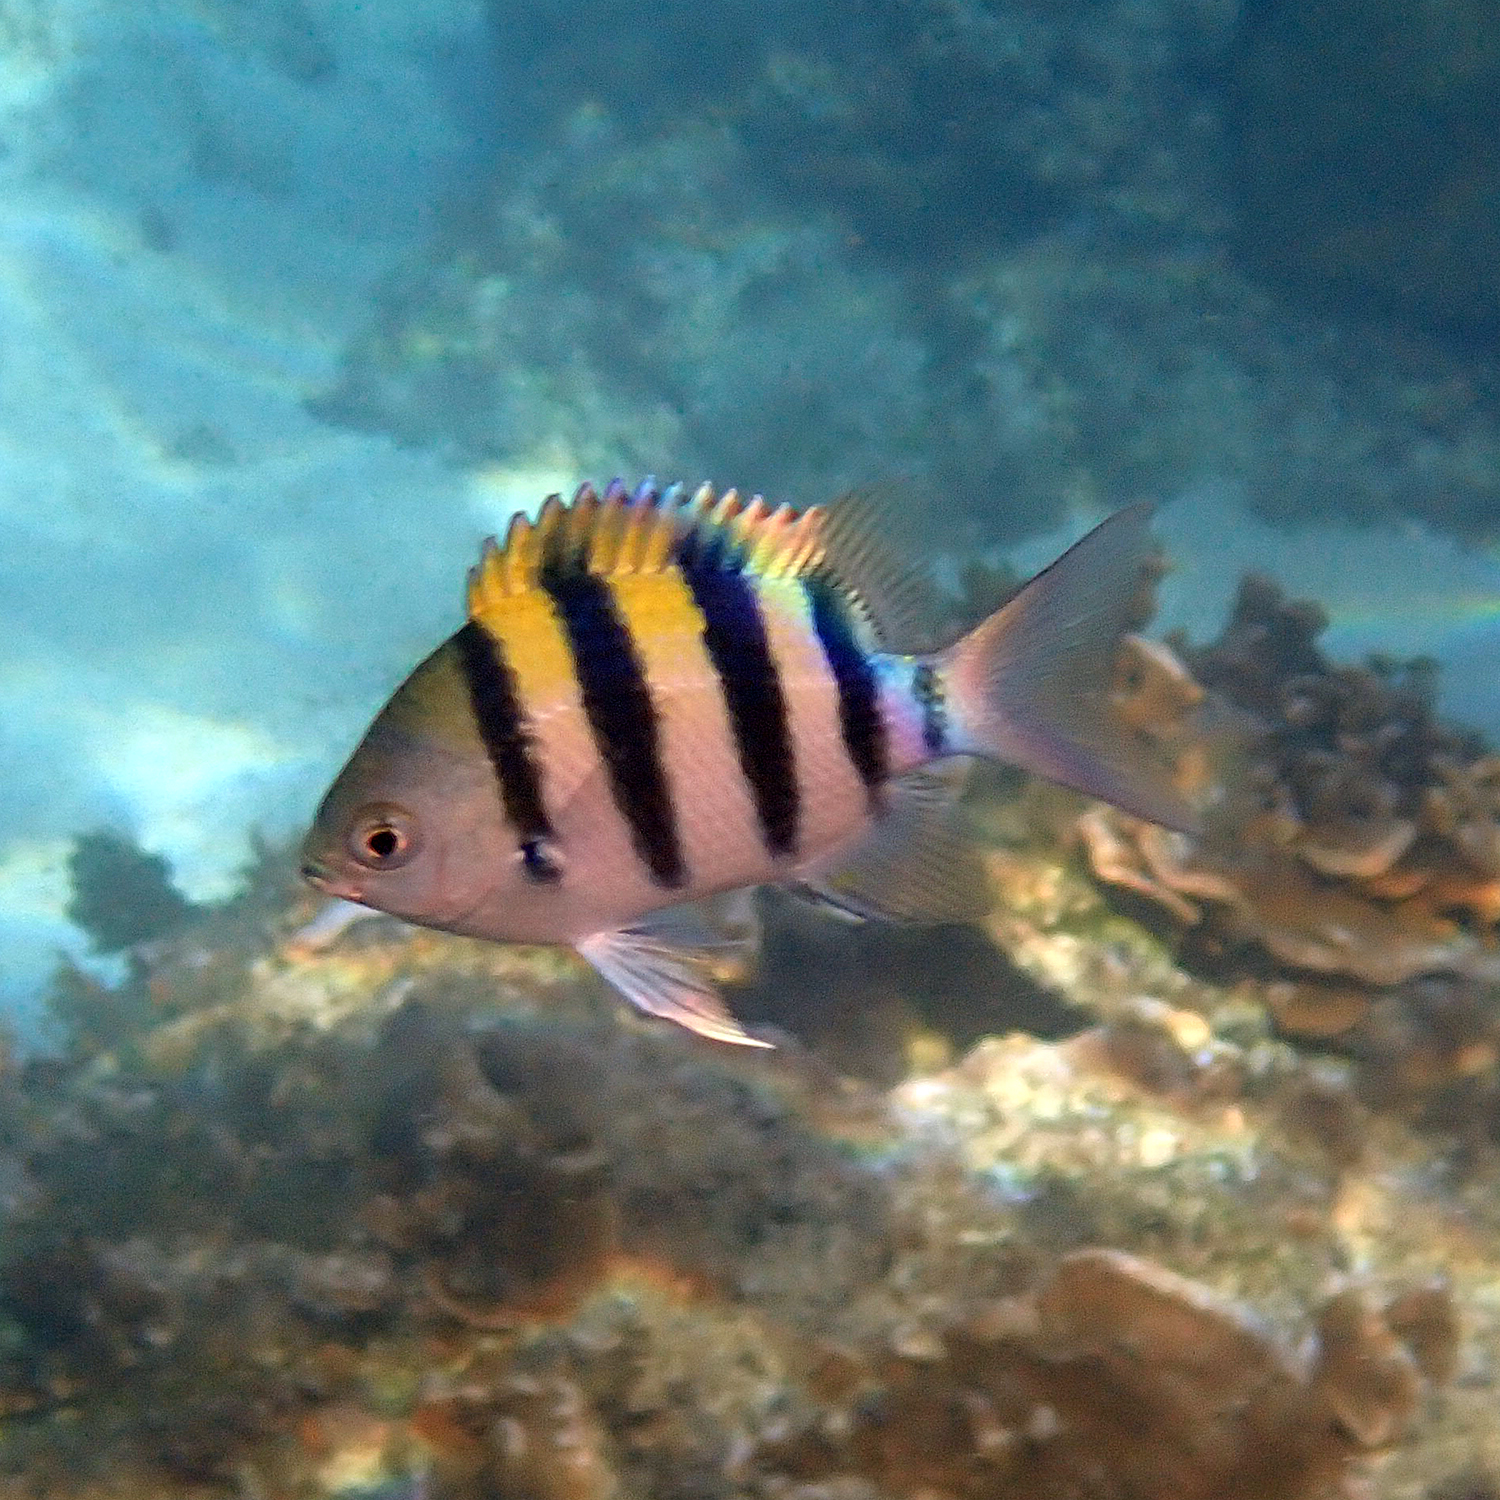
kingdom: Animalia
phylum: Chordata
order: Perciformes
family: Pomacentridae
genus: Abudefduf
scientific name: Abudefduf vaigiensis
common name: Indo-pacific sergeant
